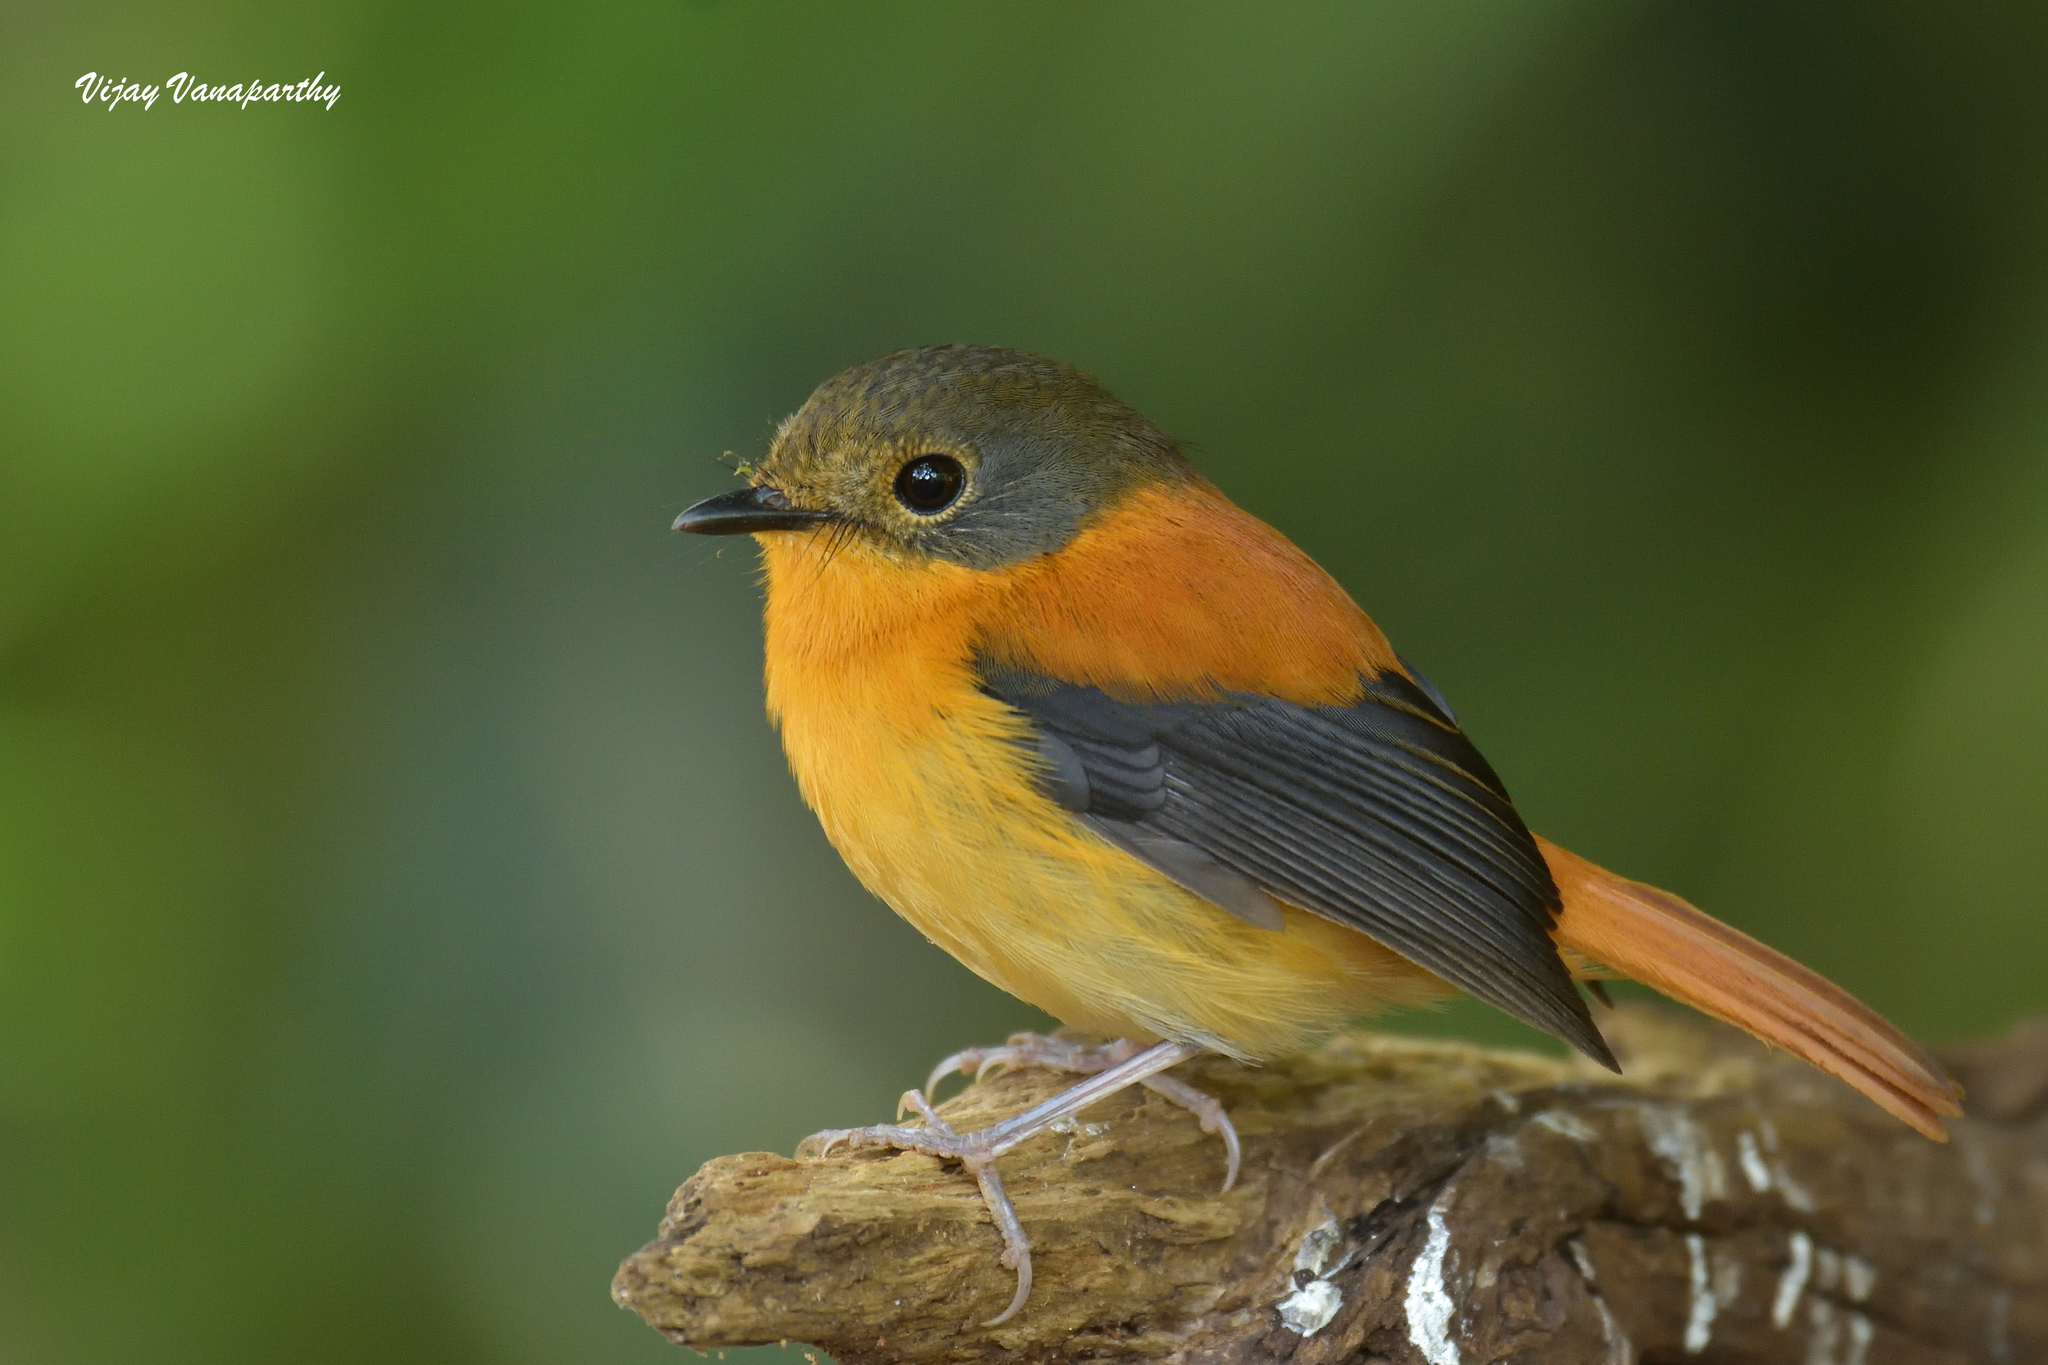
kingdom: Animalia
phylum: Chordata
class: Aves
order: Passeriformes
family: Muscicapidae
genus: Ficedula
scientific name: Ficedula nigrorufa
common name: Black-and-orange flycatcher
